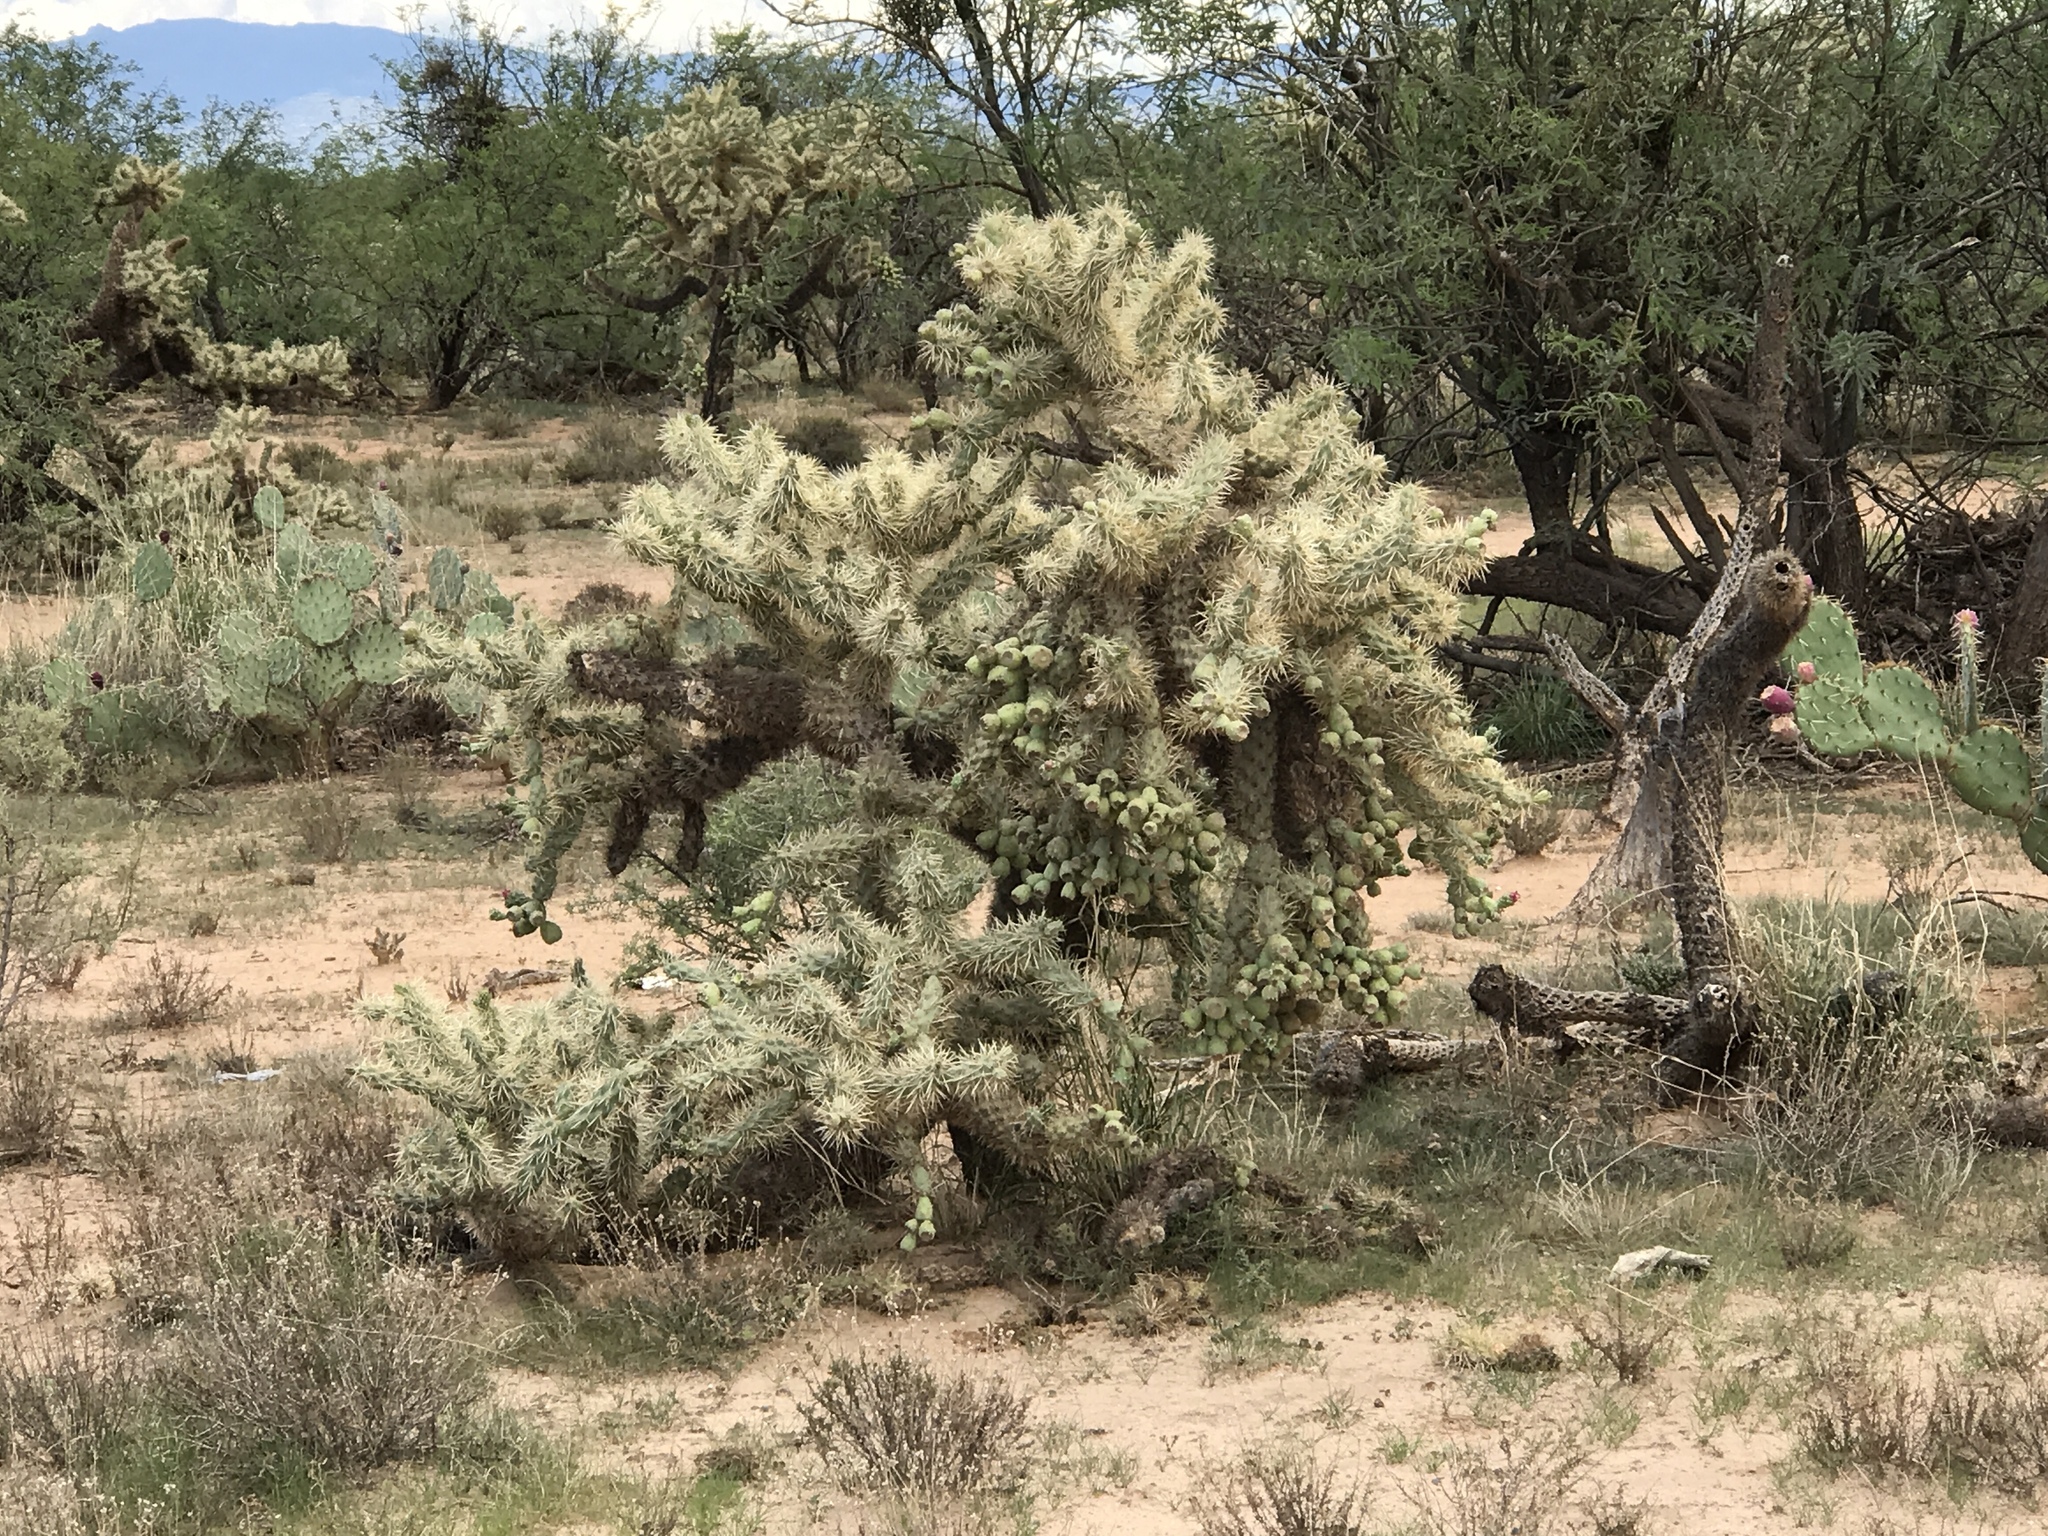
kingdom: Plantae
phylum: Tracheophyta
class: Magnoliopsida
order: Caryophyllales
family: Cactaceae
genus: Cylindropuntia
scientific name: Cylindropuntia fulgida
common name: Jumping cholla
